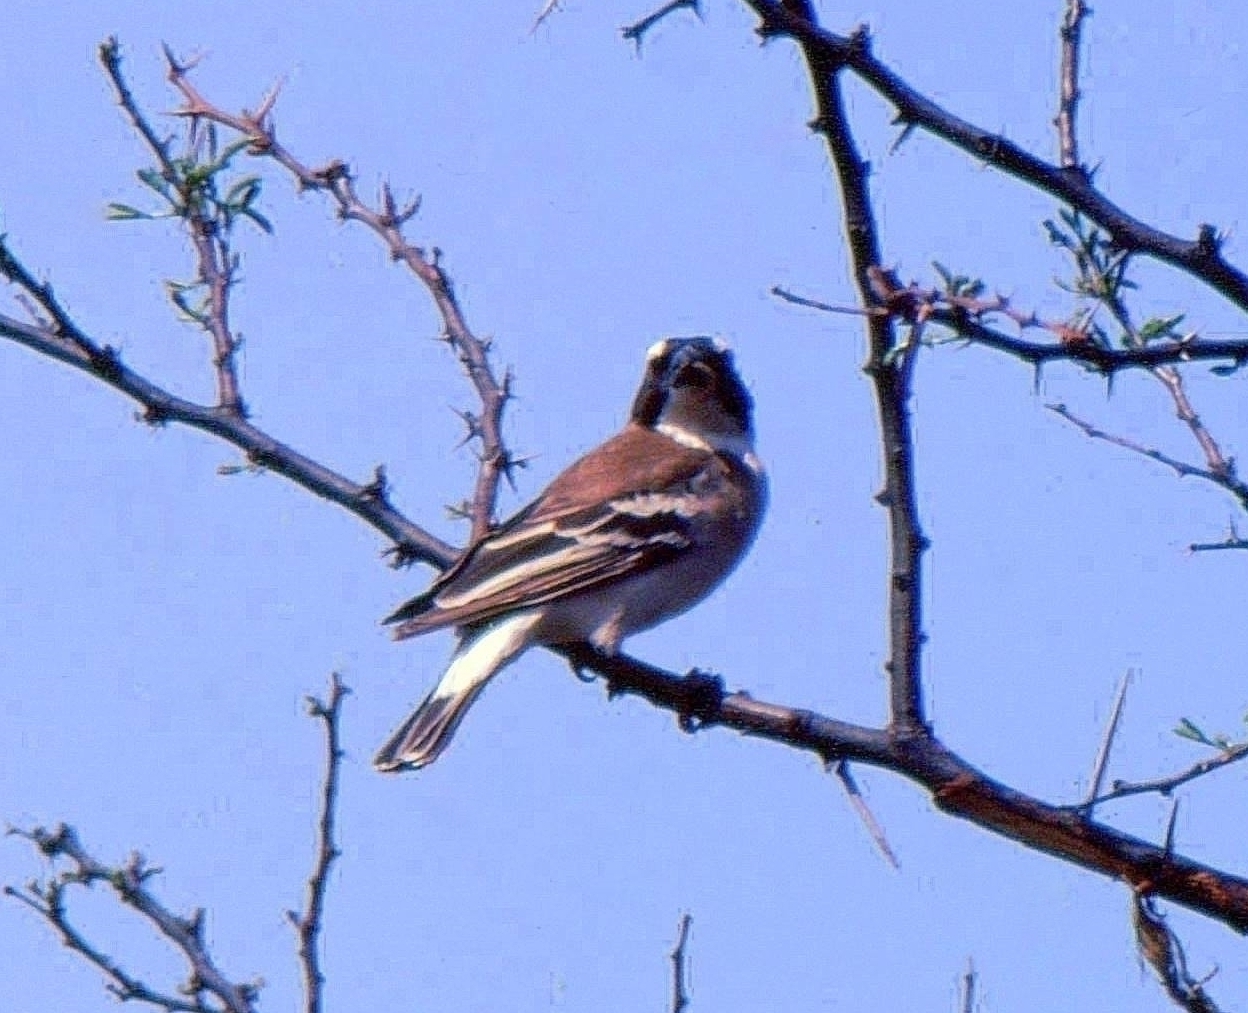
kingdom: Animalia
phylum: Chordata
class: Aves
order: Passeriformes
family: Passeridae
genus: Plocepasser
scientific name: Plocepasser mahali
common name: White-browed sparrow-weaver
